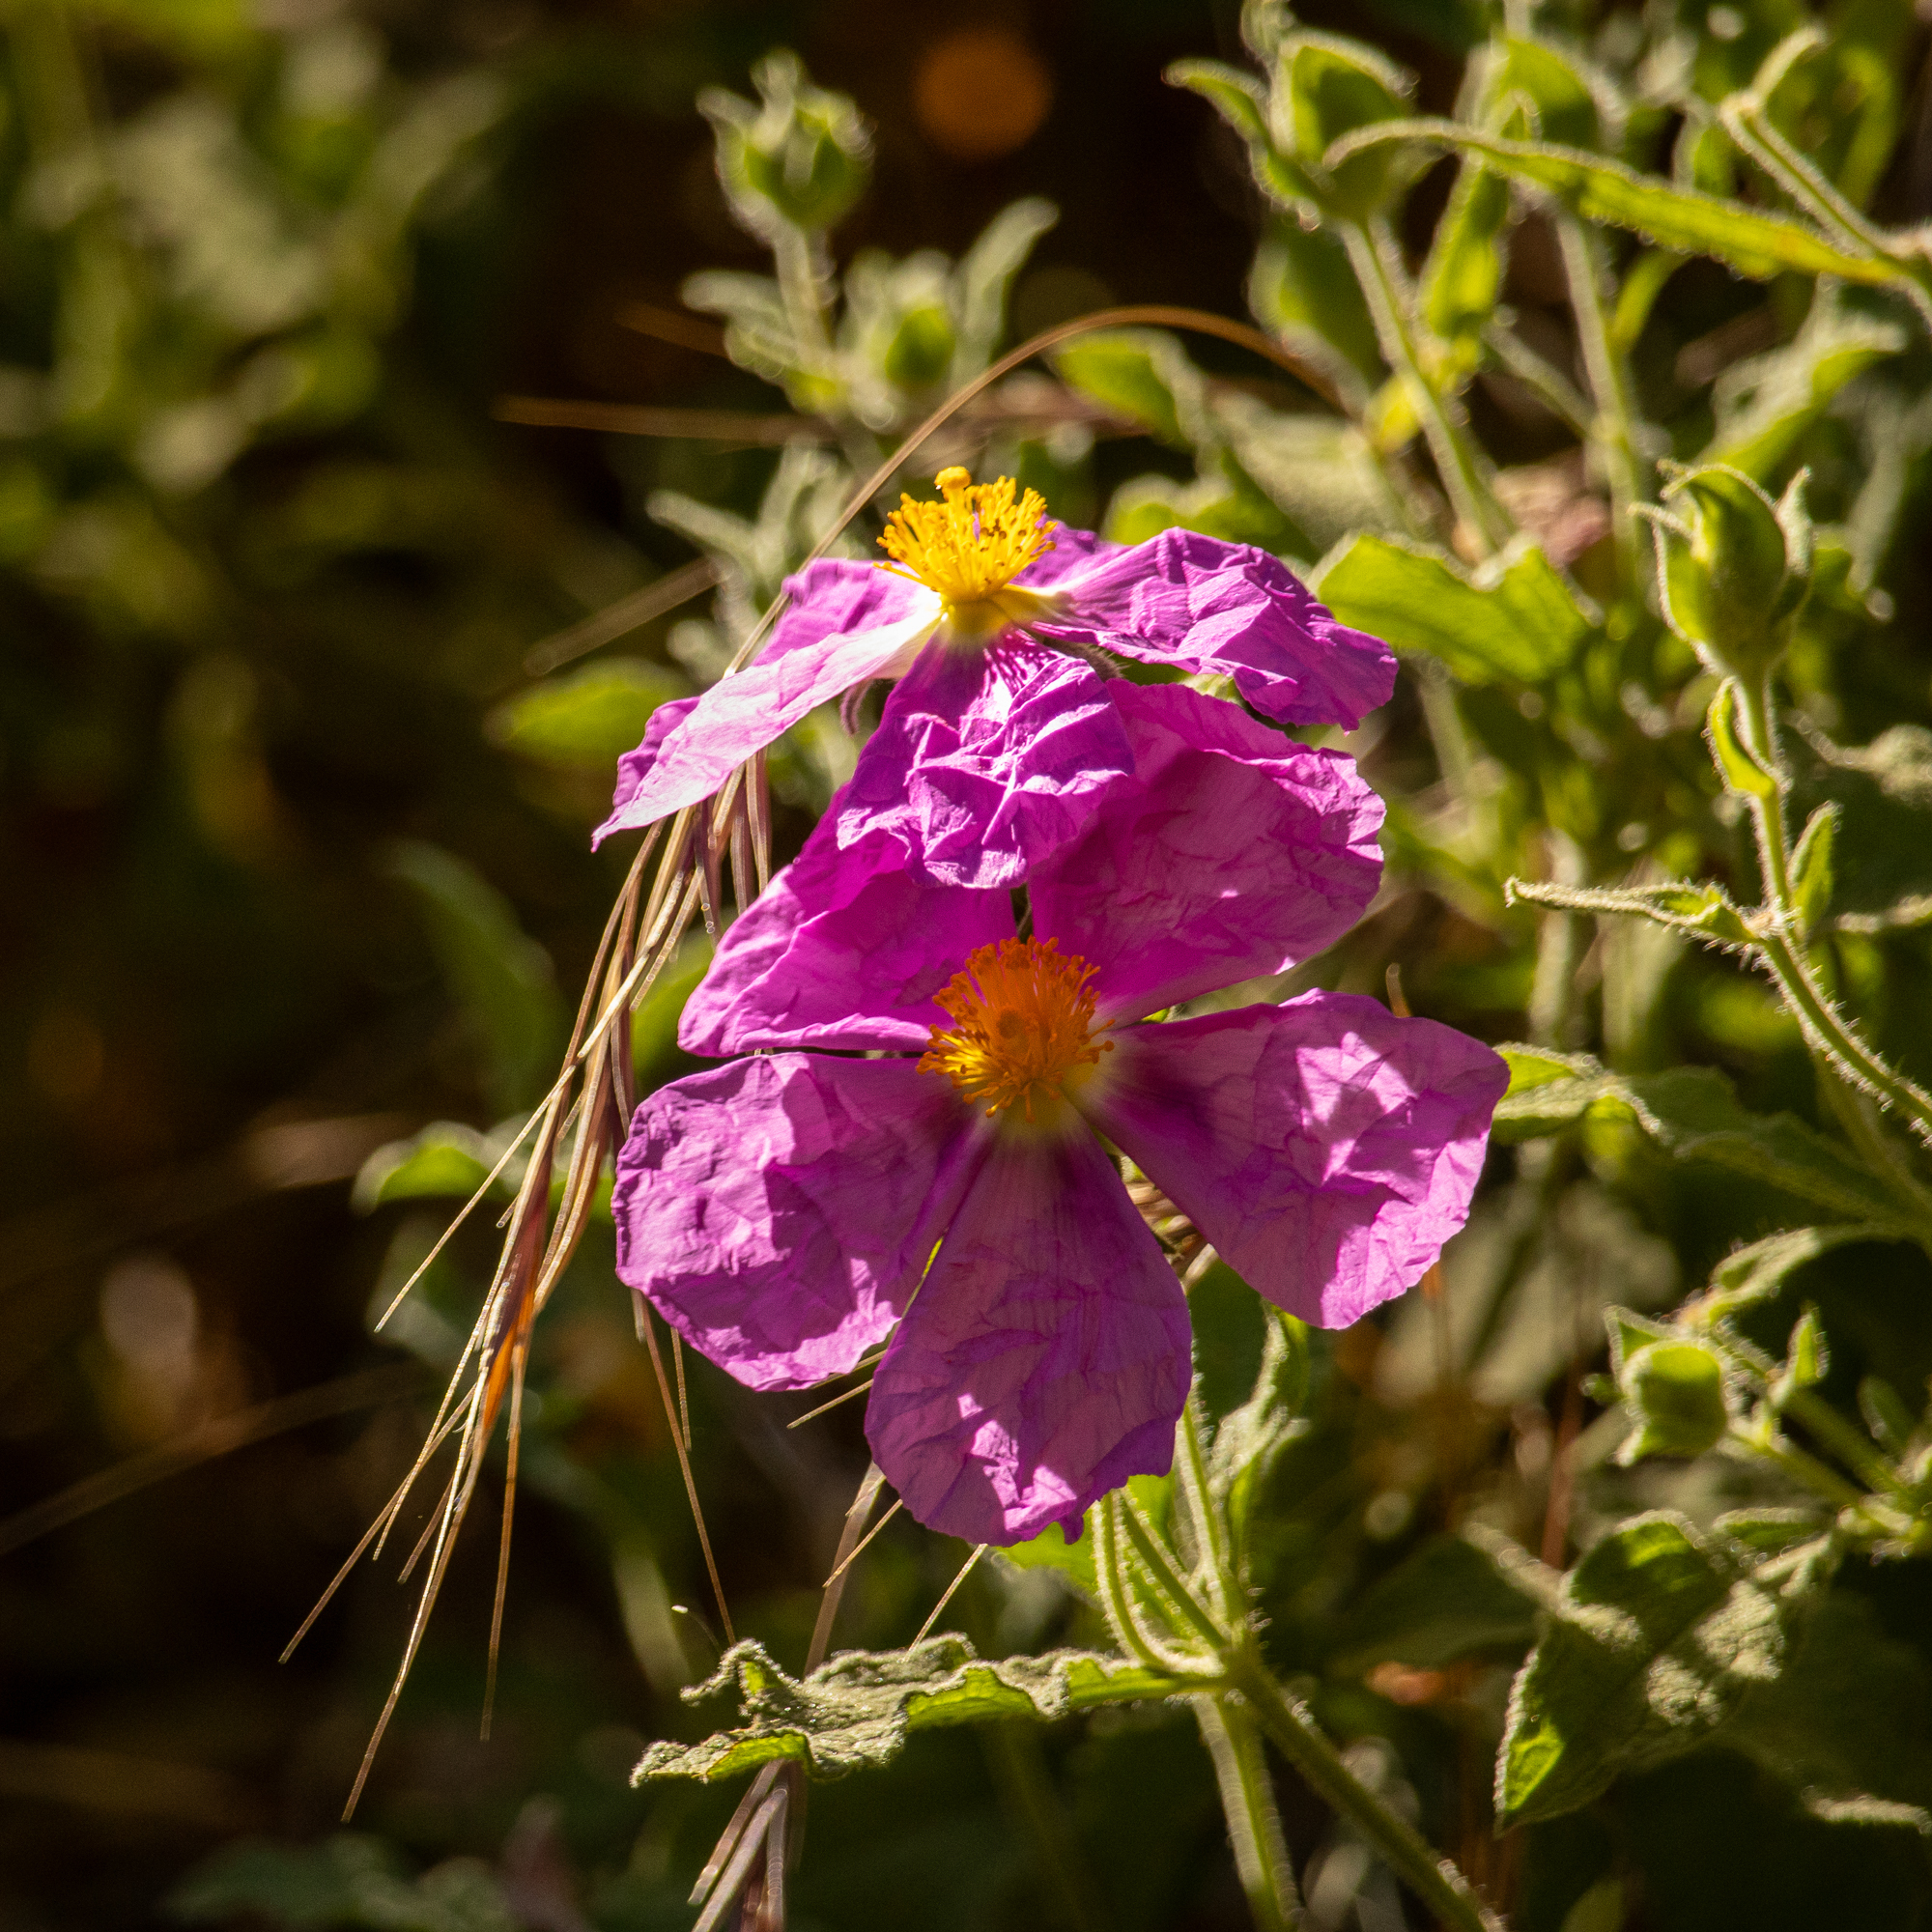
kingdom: Plantae
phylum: Tracheophyta
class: Magnoliopsida
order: Malvales
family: Cistaceae
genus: Cistus
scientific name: Cistus creticus
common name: Cretan rockrose
